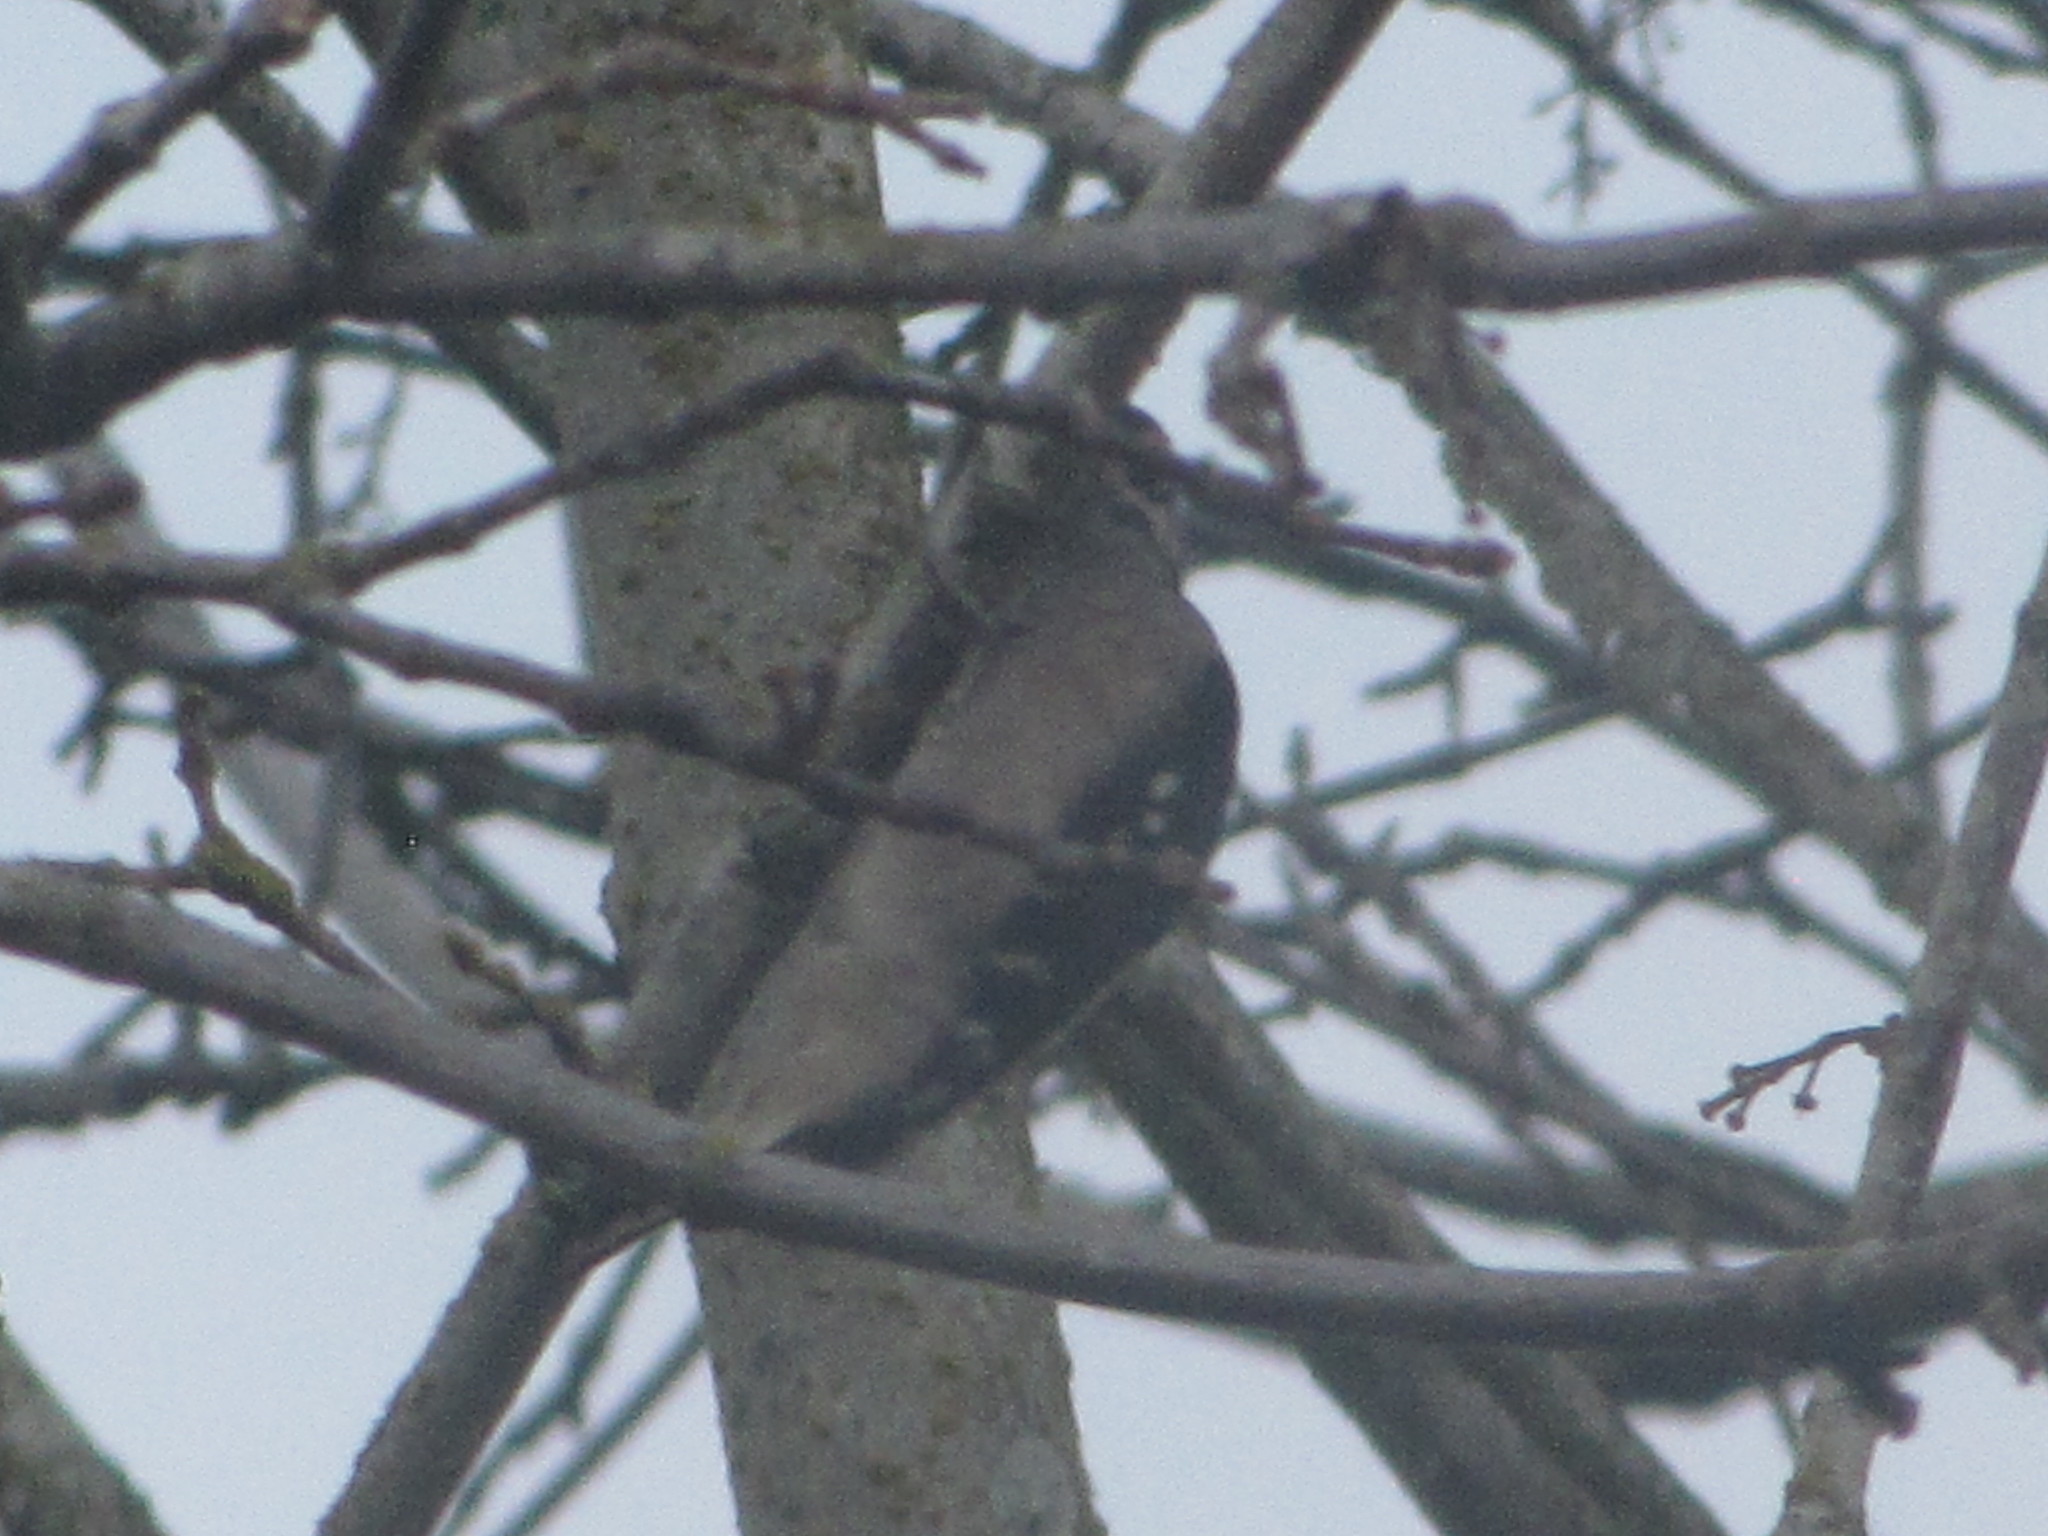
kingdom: Animalia
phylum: Chordata
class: Aves
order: Piciformes
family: Picidae
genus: Dryobates
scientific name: Dryobates pubescens
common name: Downy woodpecker
